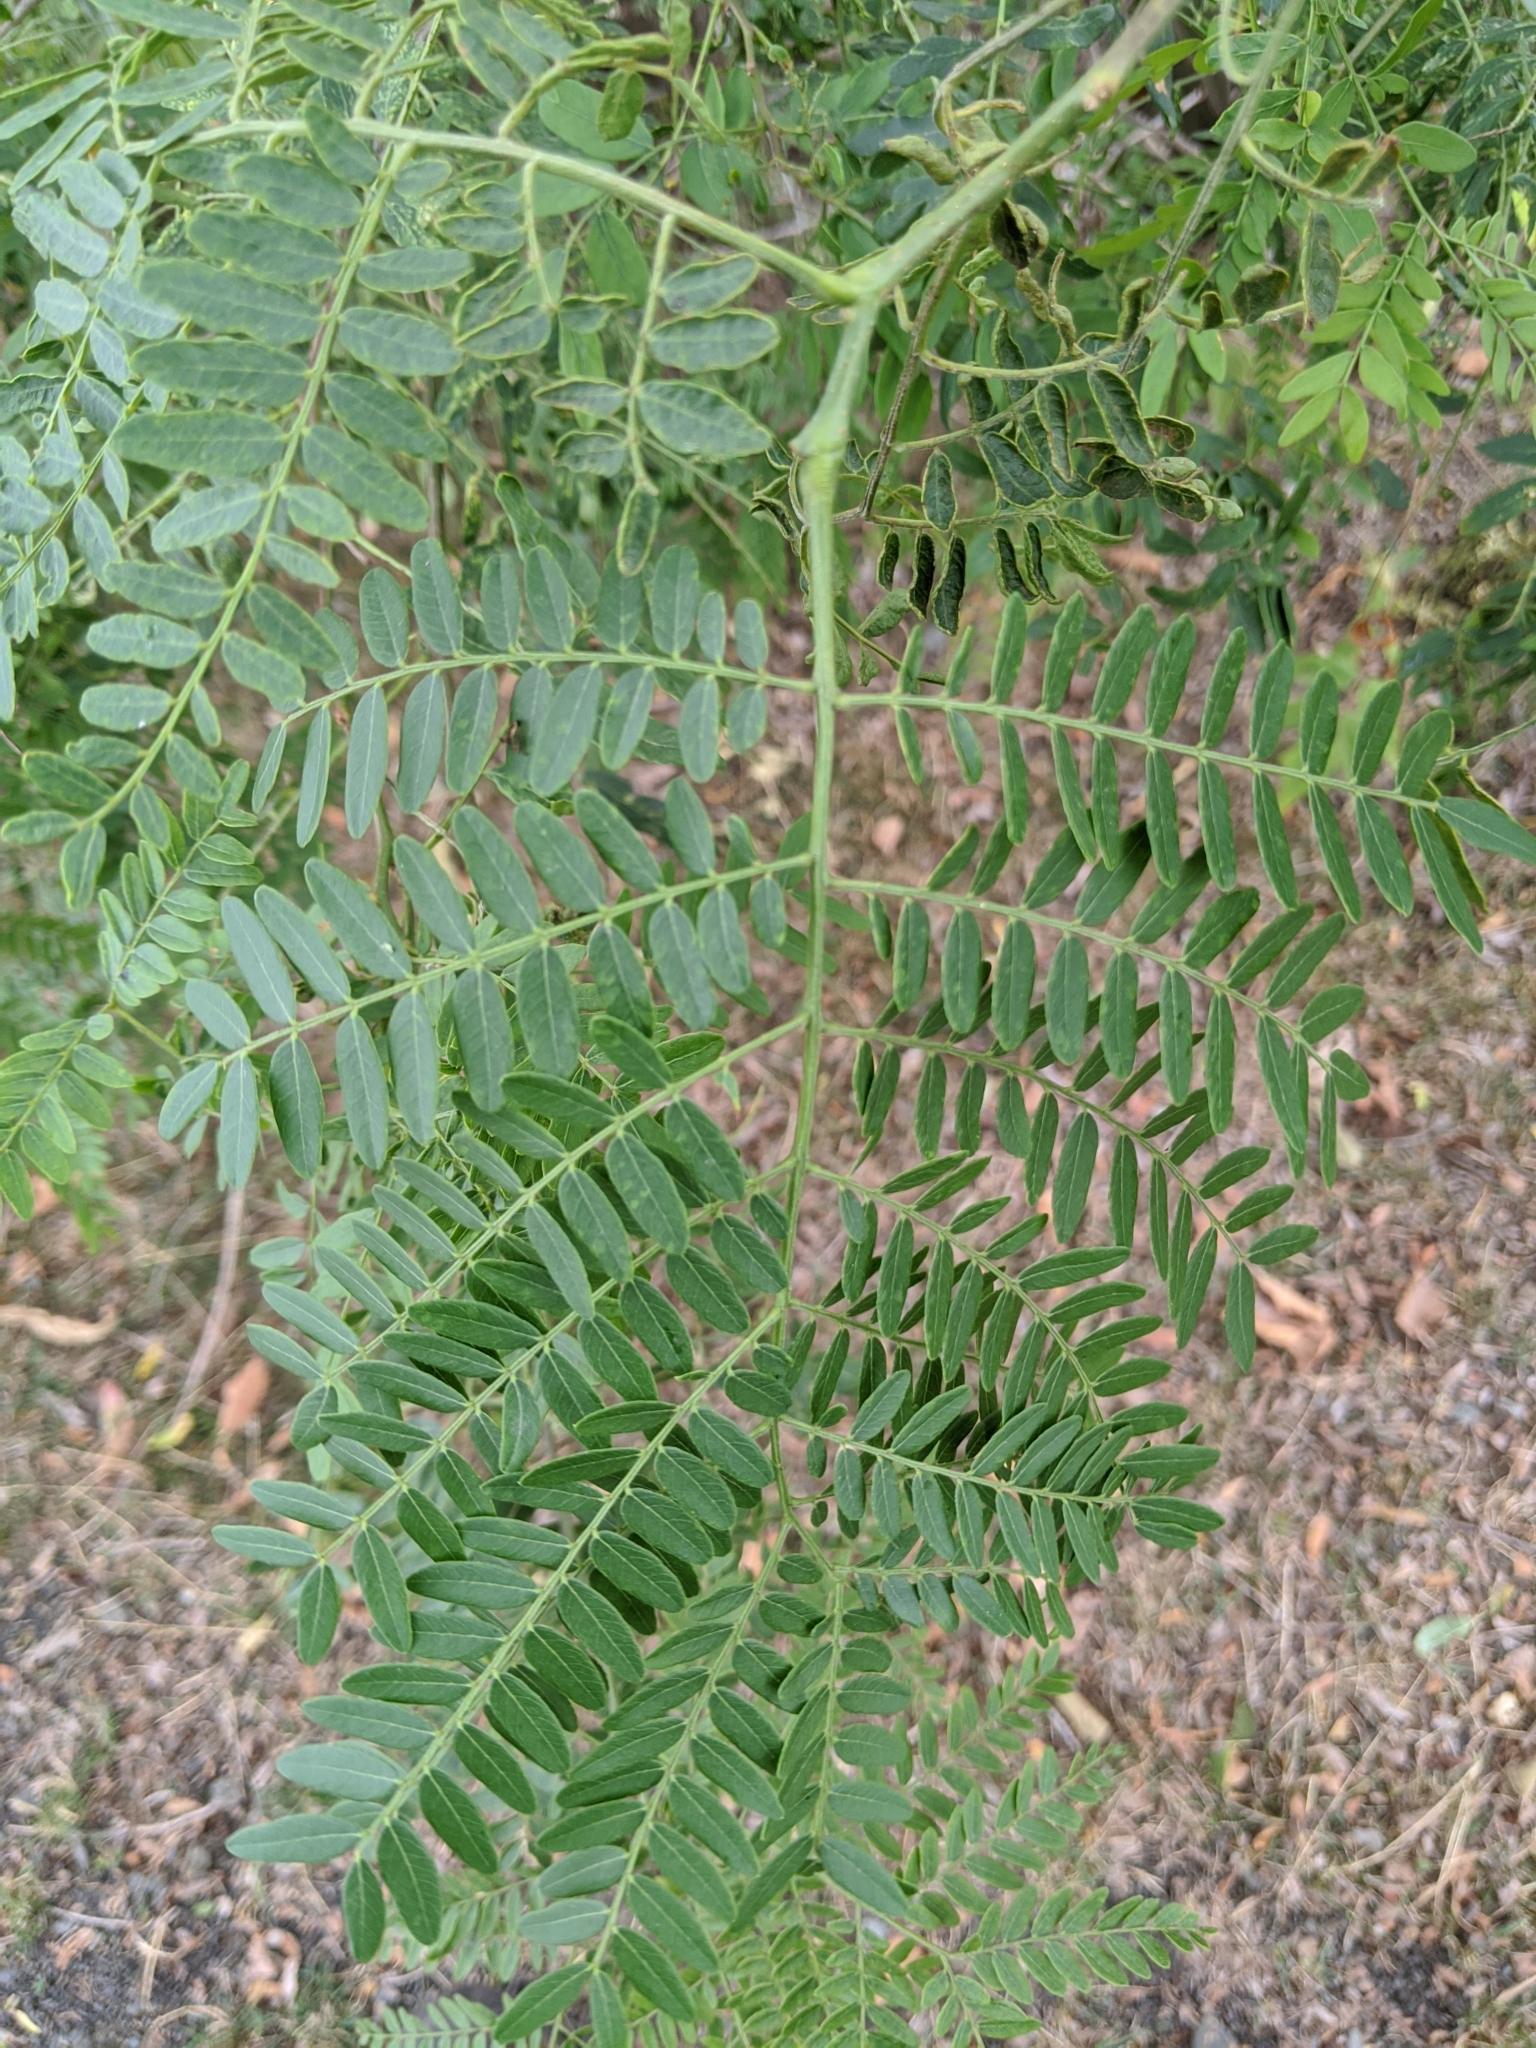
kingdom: Plantae
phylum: Tracheophyta
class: Magnoliopsida
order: Fabales
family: Fabaceae
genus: Gleditsia
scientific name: Gleditsia triacanthos
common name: Common honeylocust
